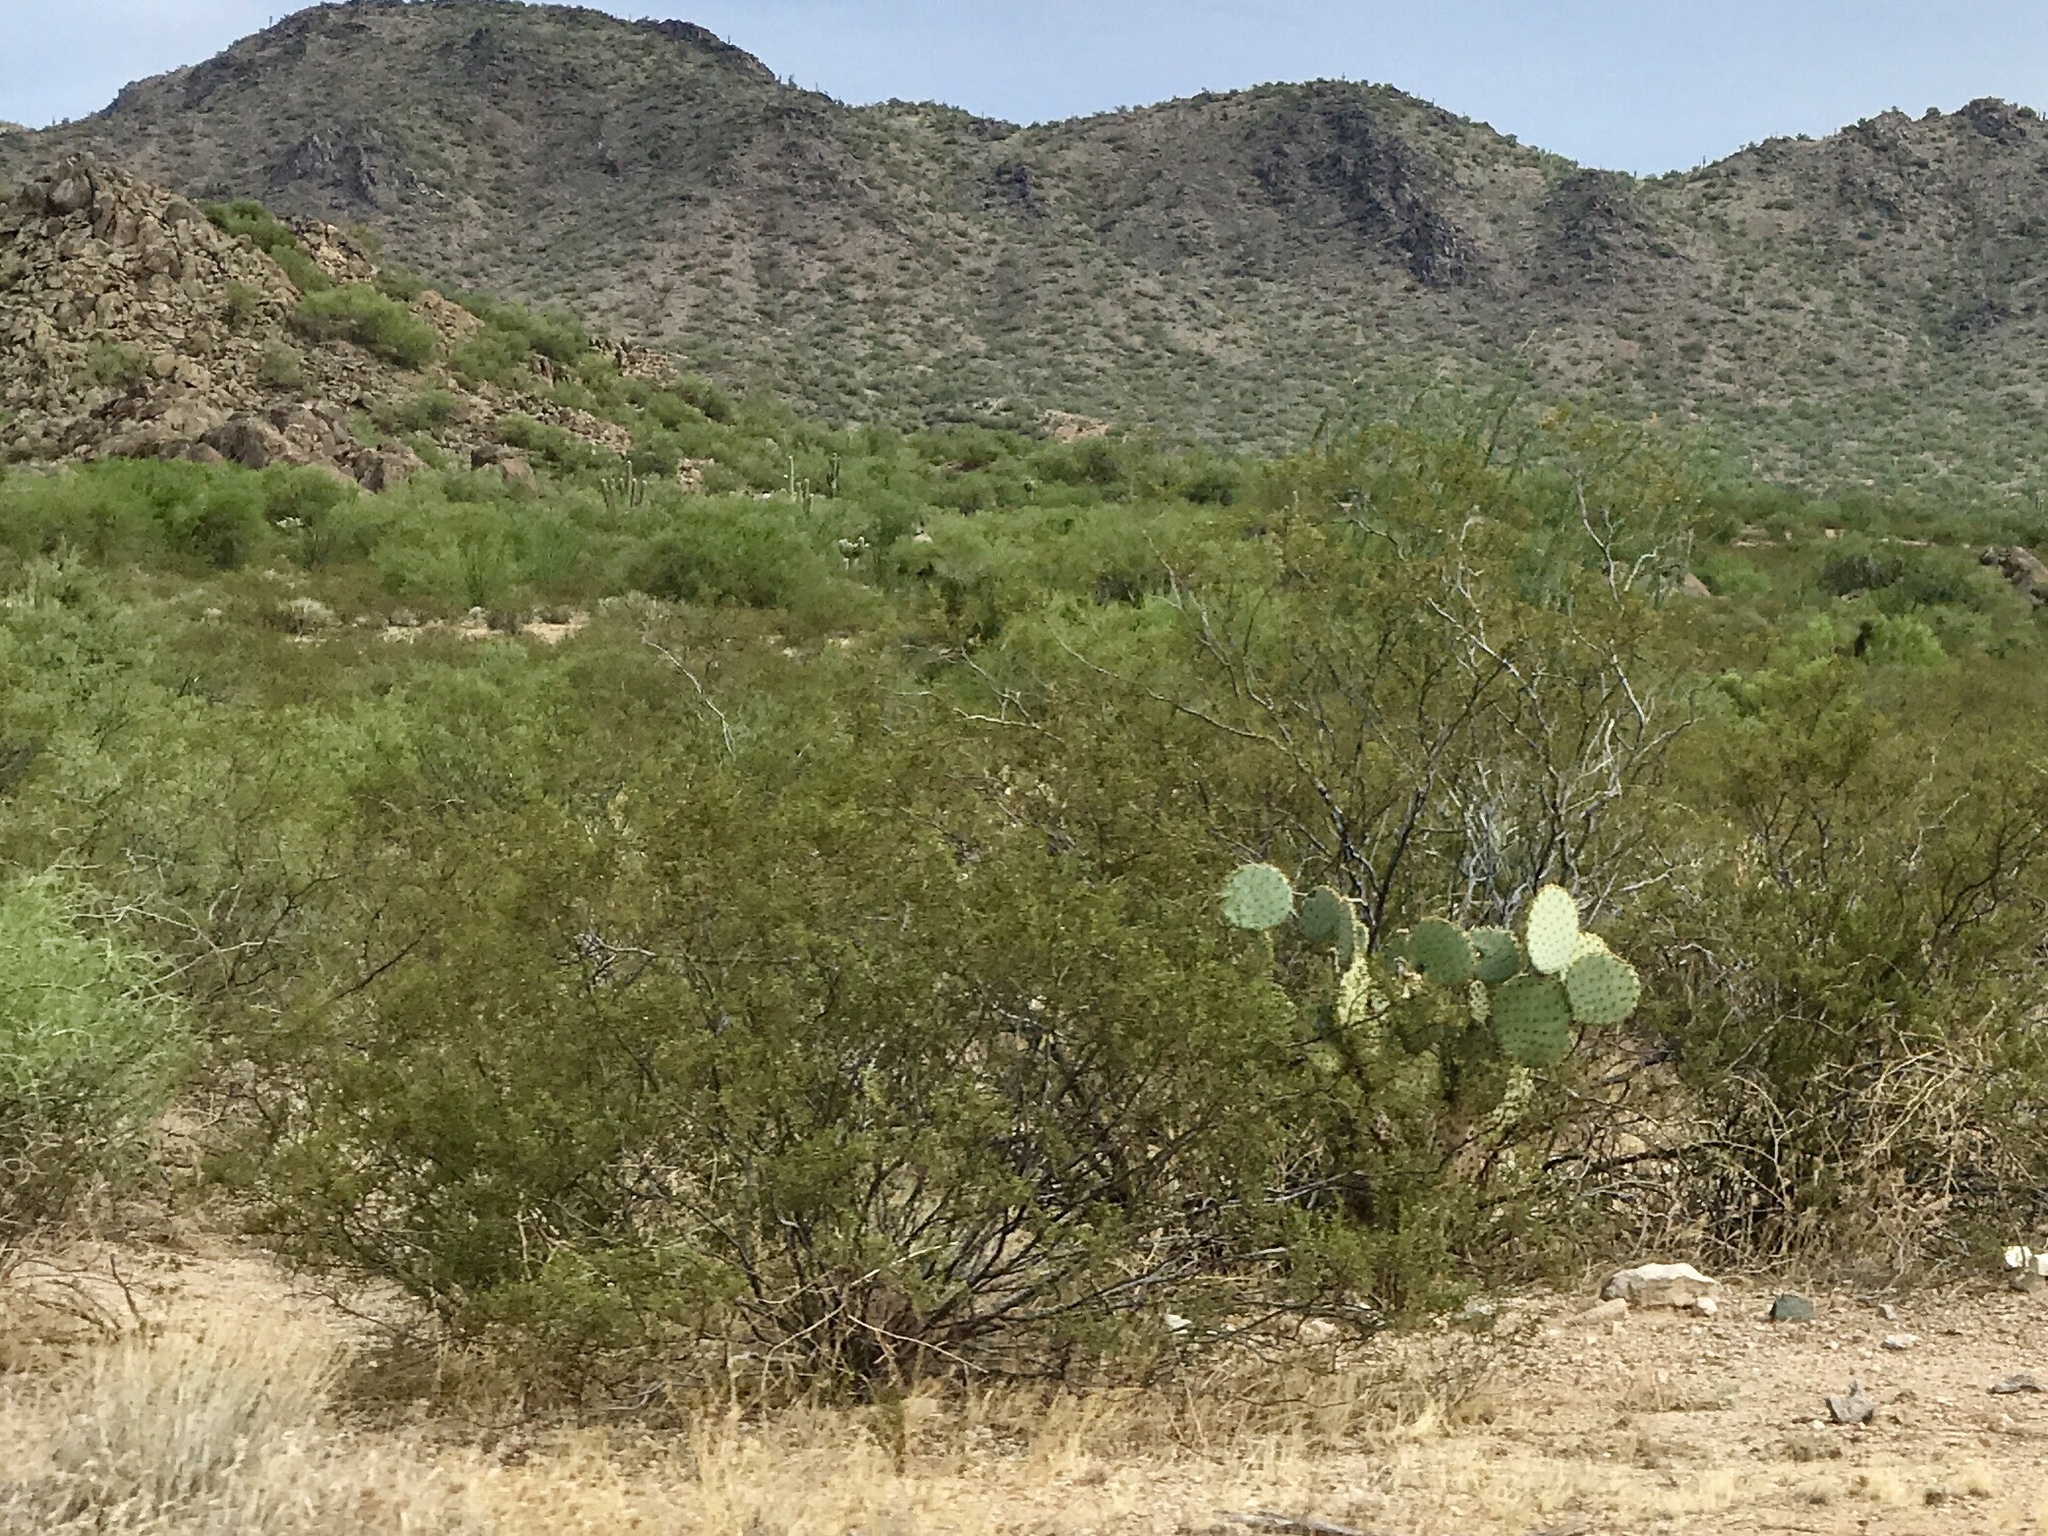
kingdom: Plantae
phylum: Tracheophyta
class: Magnoliopsida
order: Zygophyllales
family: Zygophyllaceae
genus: Larrea
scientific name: Larrea tridentata
